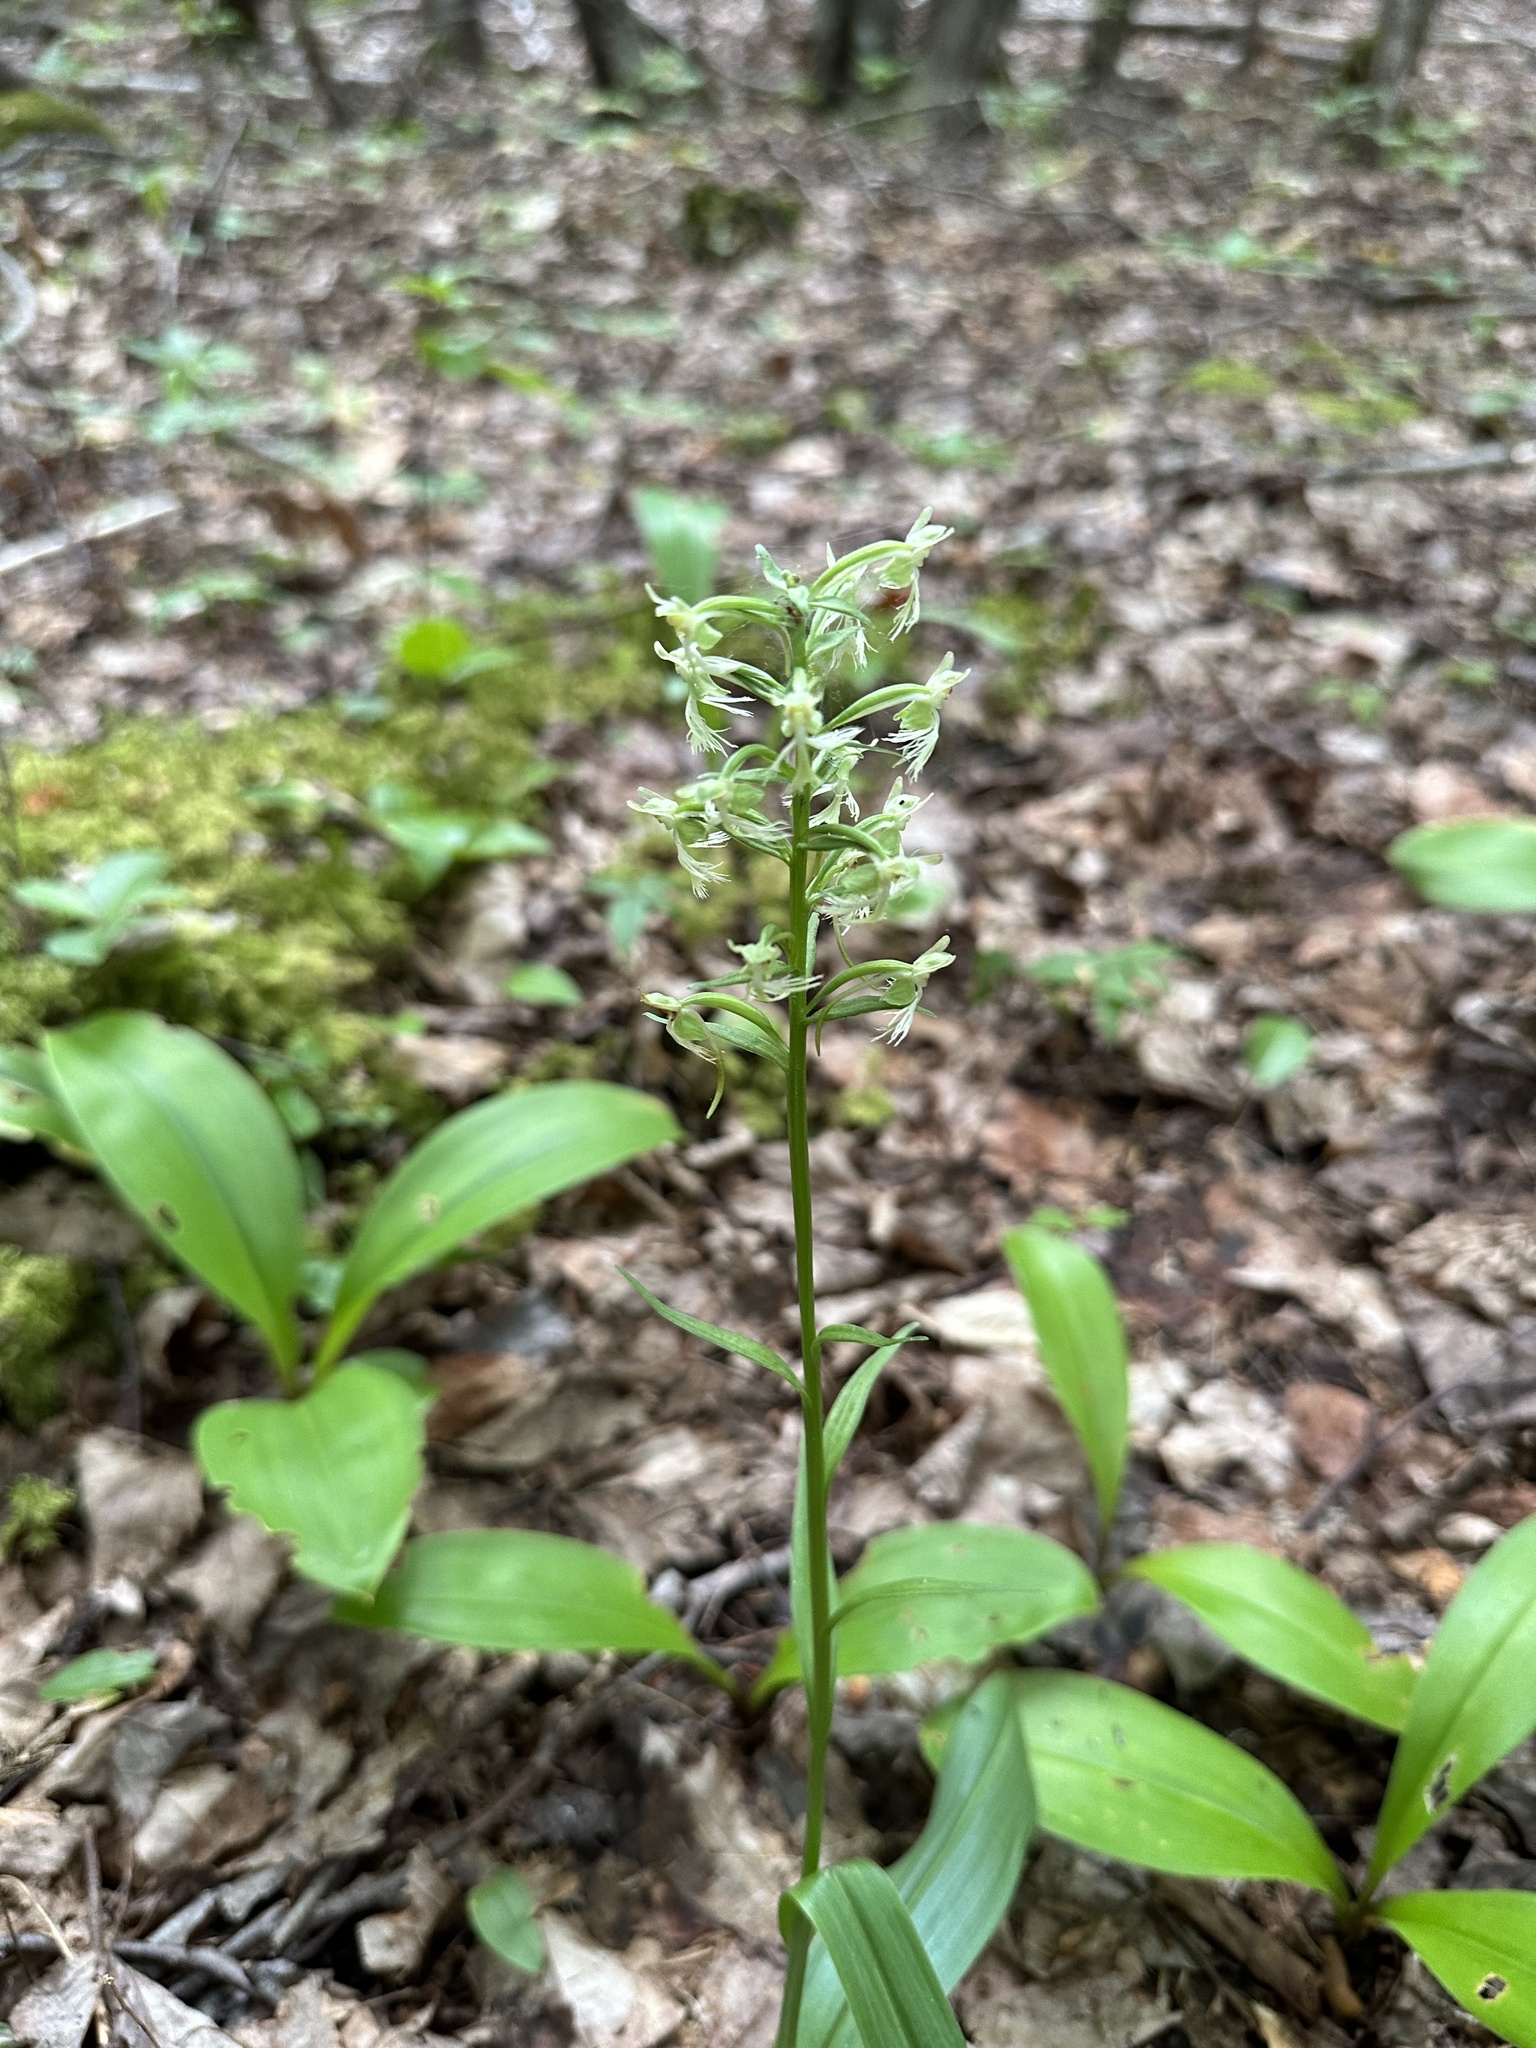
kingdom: Plantae
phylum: Tracheophyta
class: Liliopsida
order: Asparagales
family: Orchidaceae
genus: Platanthera
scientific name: Platanthera lacera
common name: Green fringed orchid
